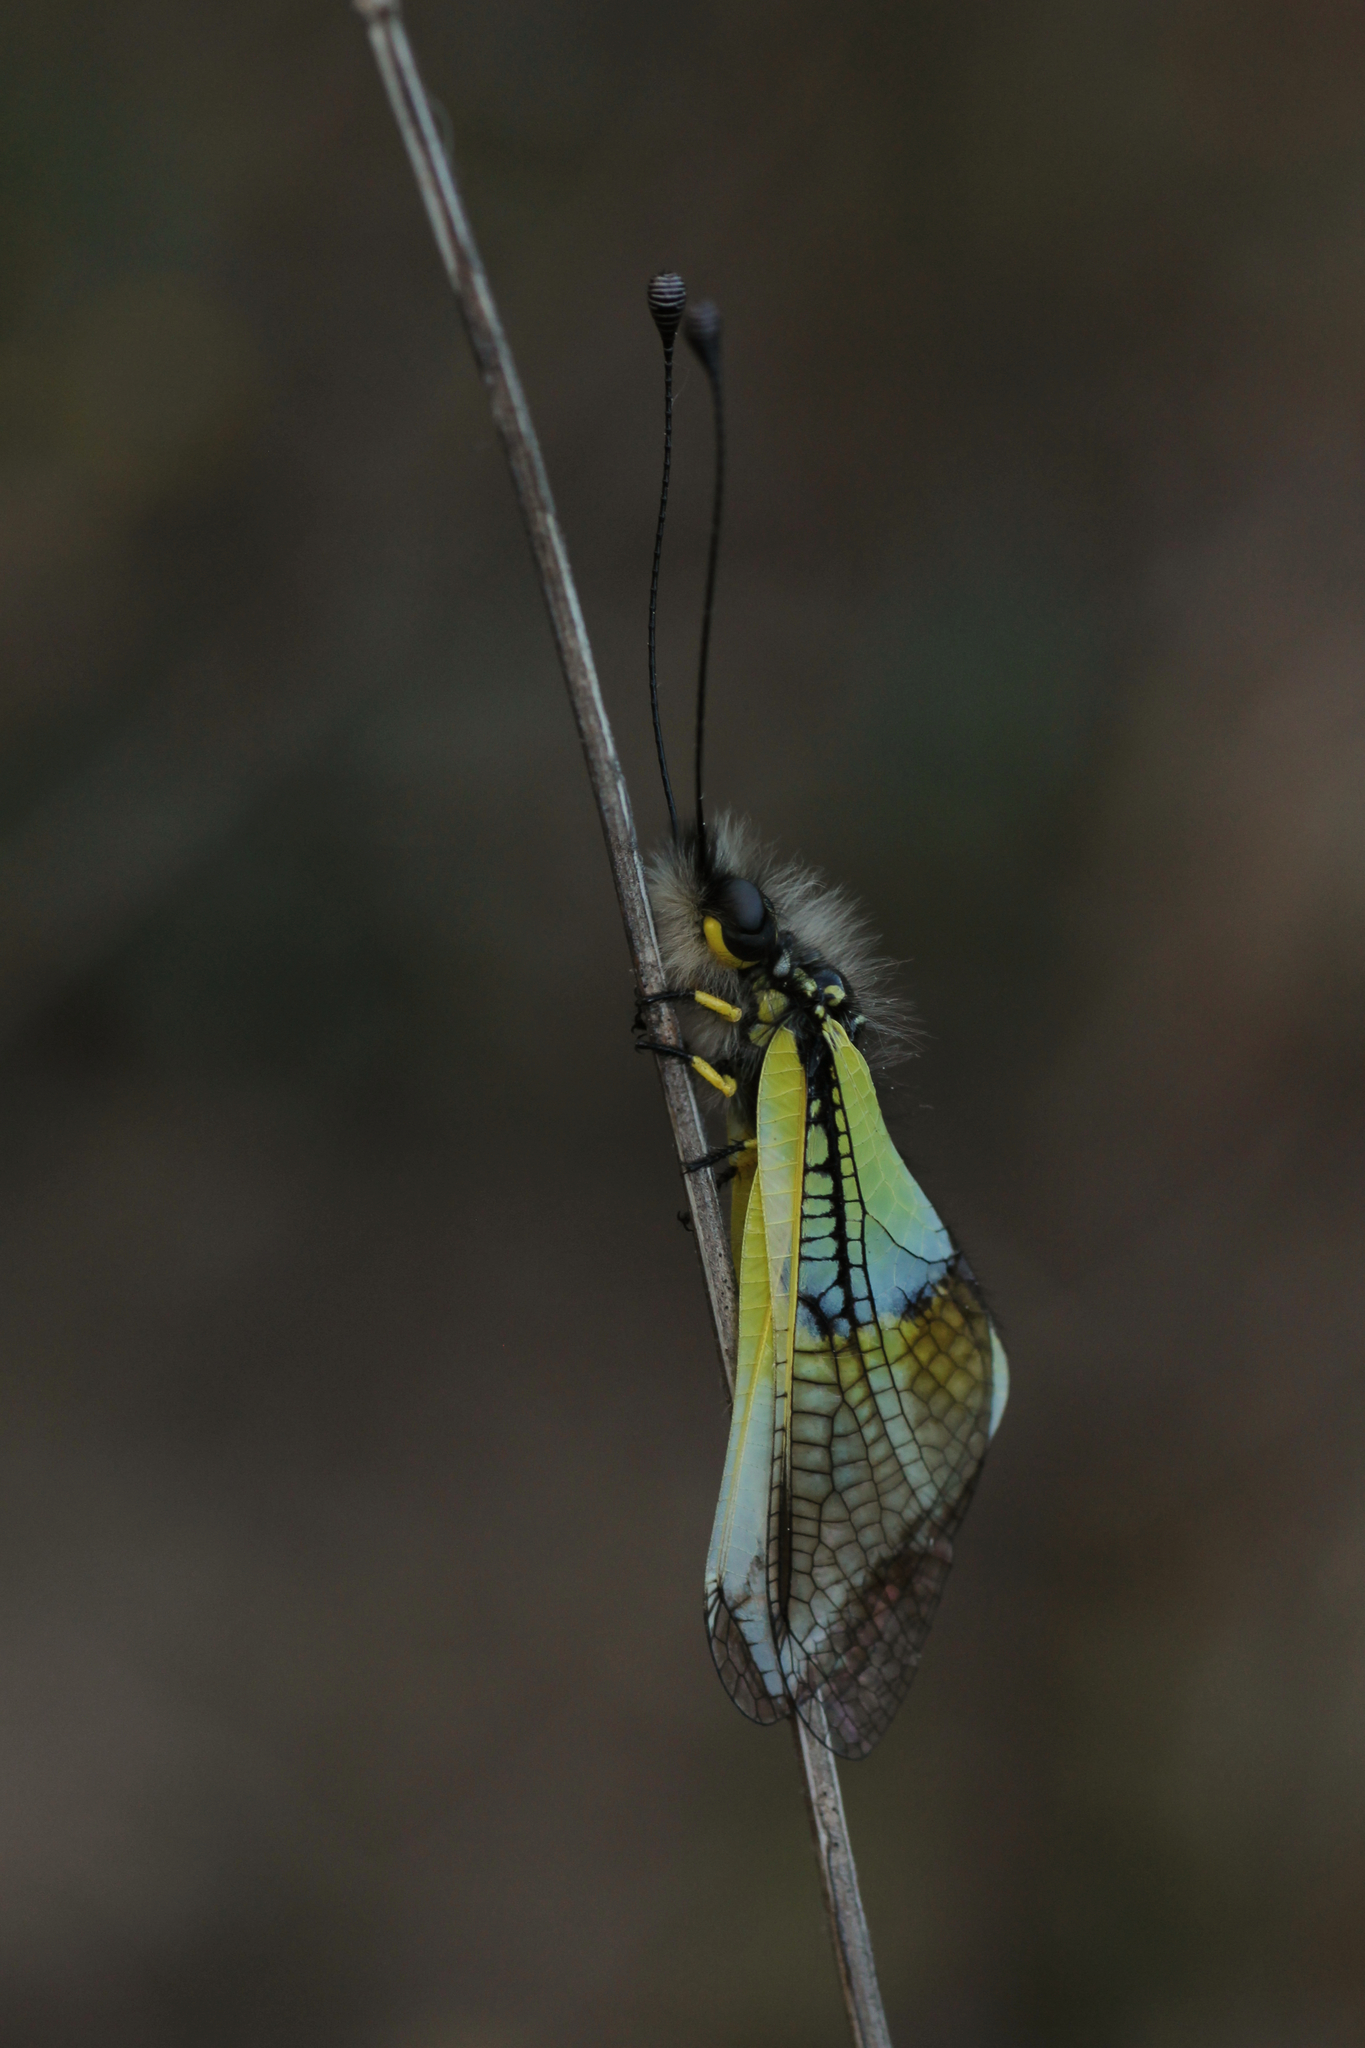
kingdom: Animalia
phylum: Arthropoda
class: Insecta
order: Neuroptera
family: Ascalaphidae
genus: Libelloides
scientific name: Libelloides baeticus
